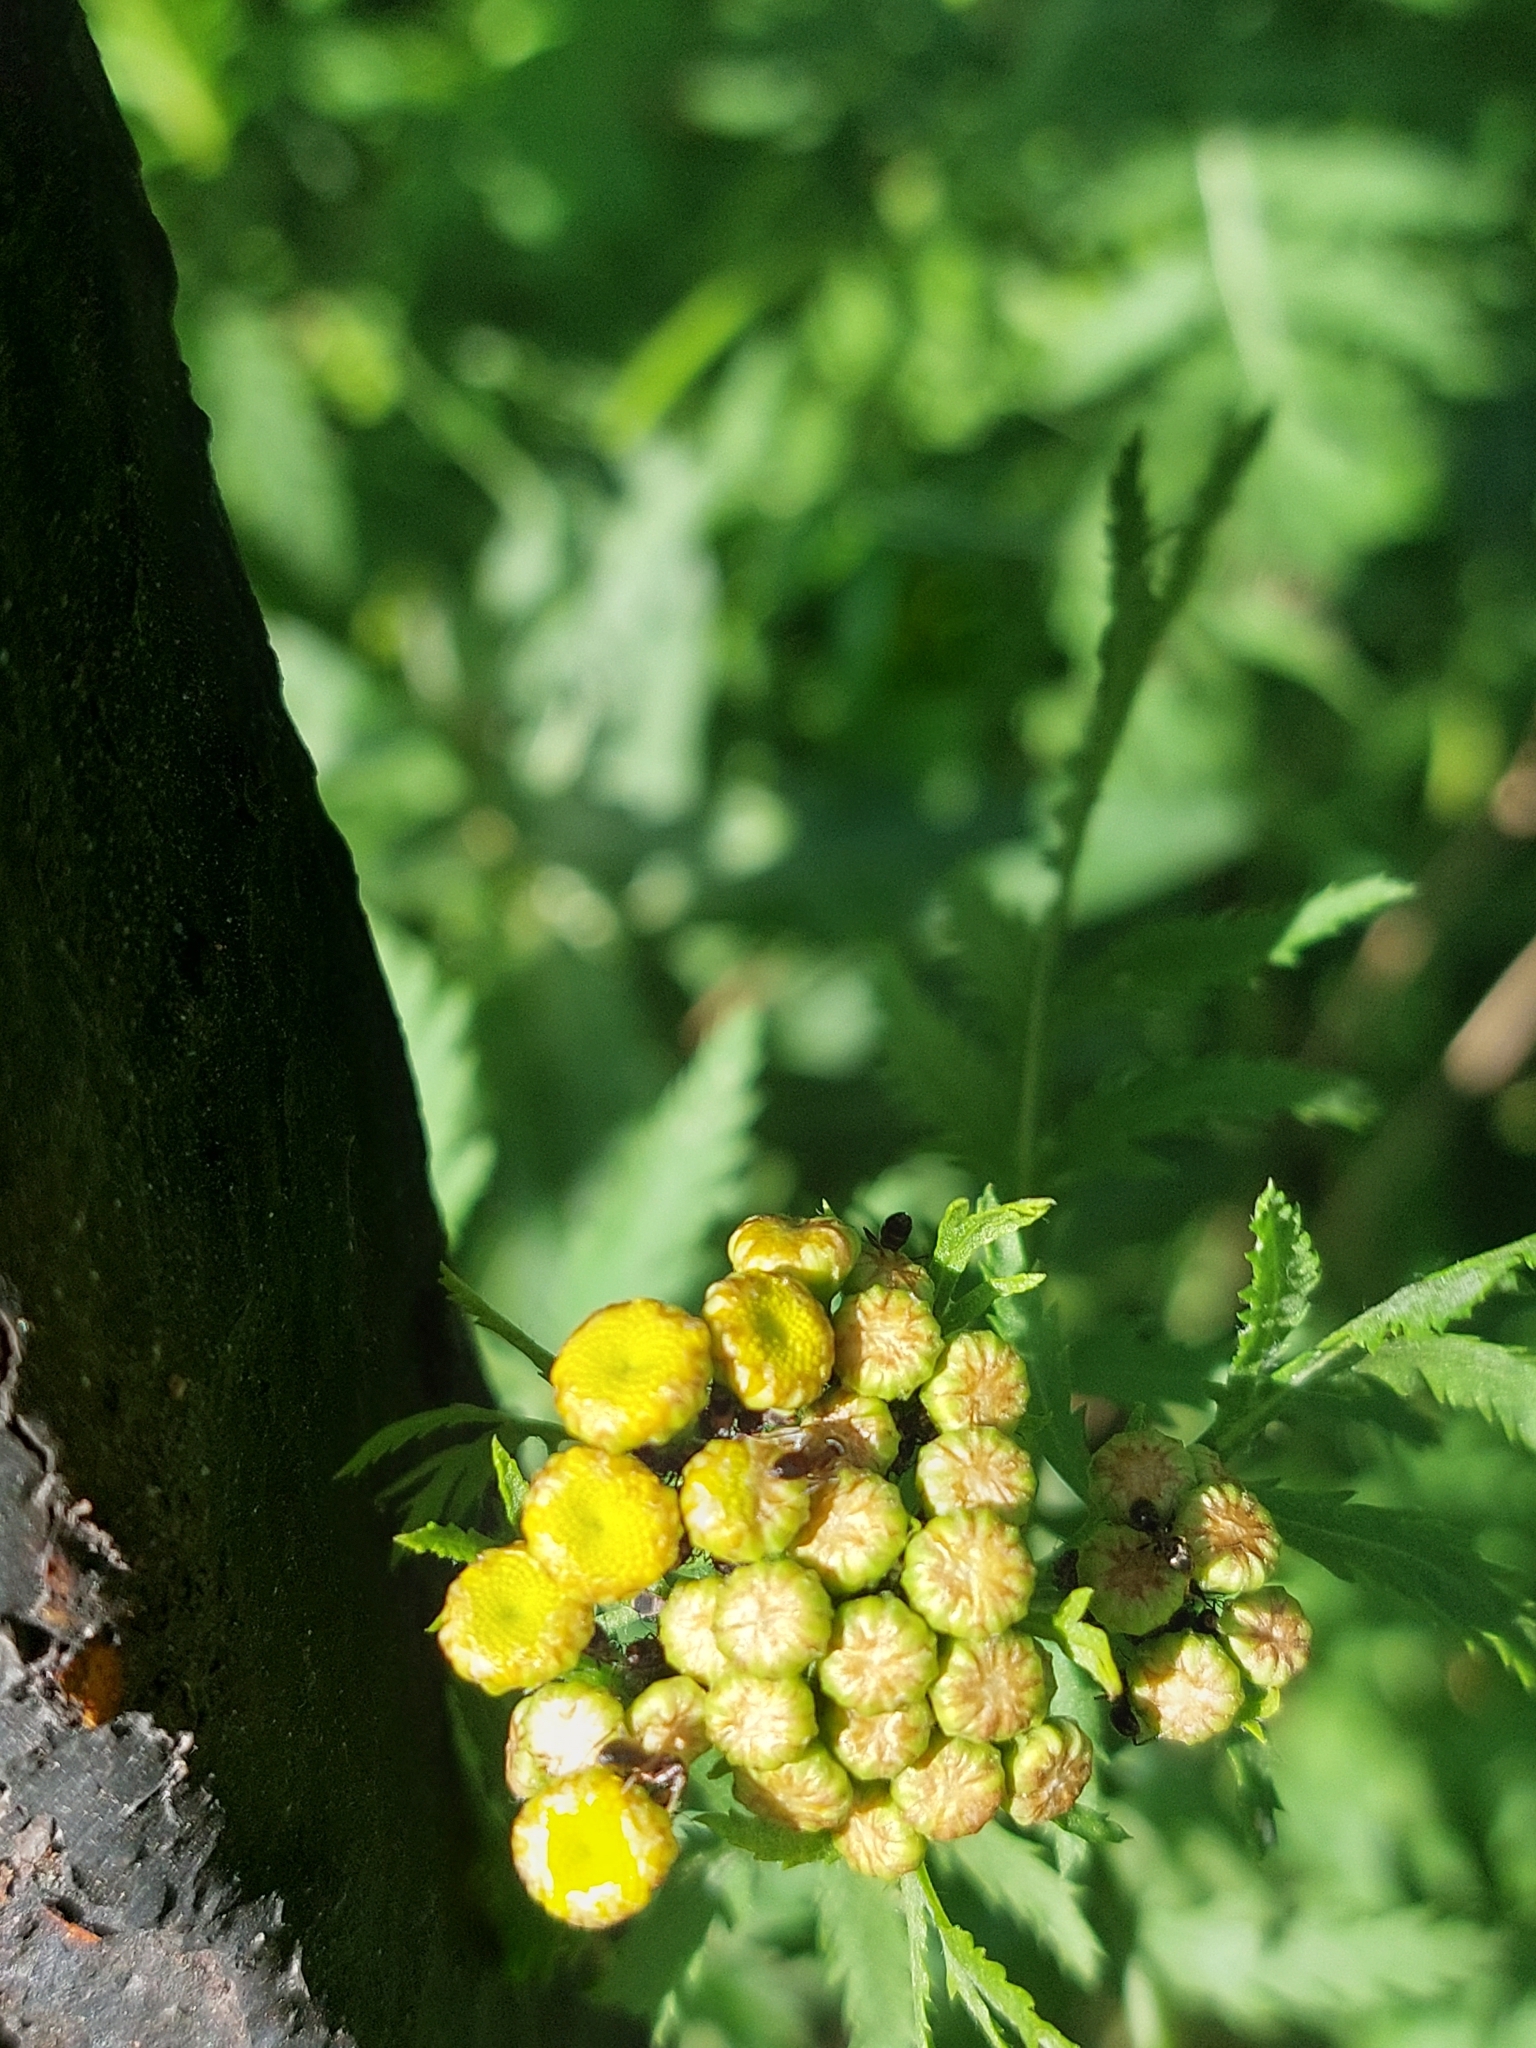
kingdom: Plantae
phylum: Tracheophyta
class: Magnoliopsida
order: Asterales
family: Asteraceae
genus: Tanacetum
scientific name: Tanacetum vulgare
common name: Common tansy
